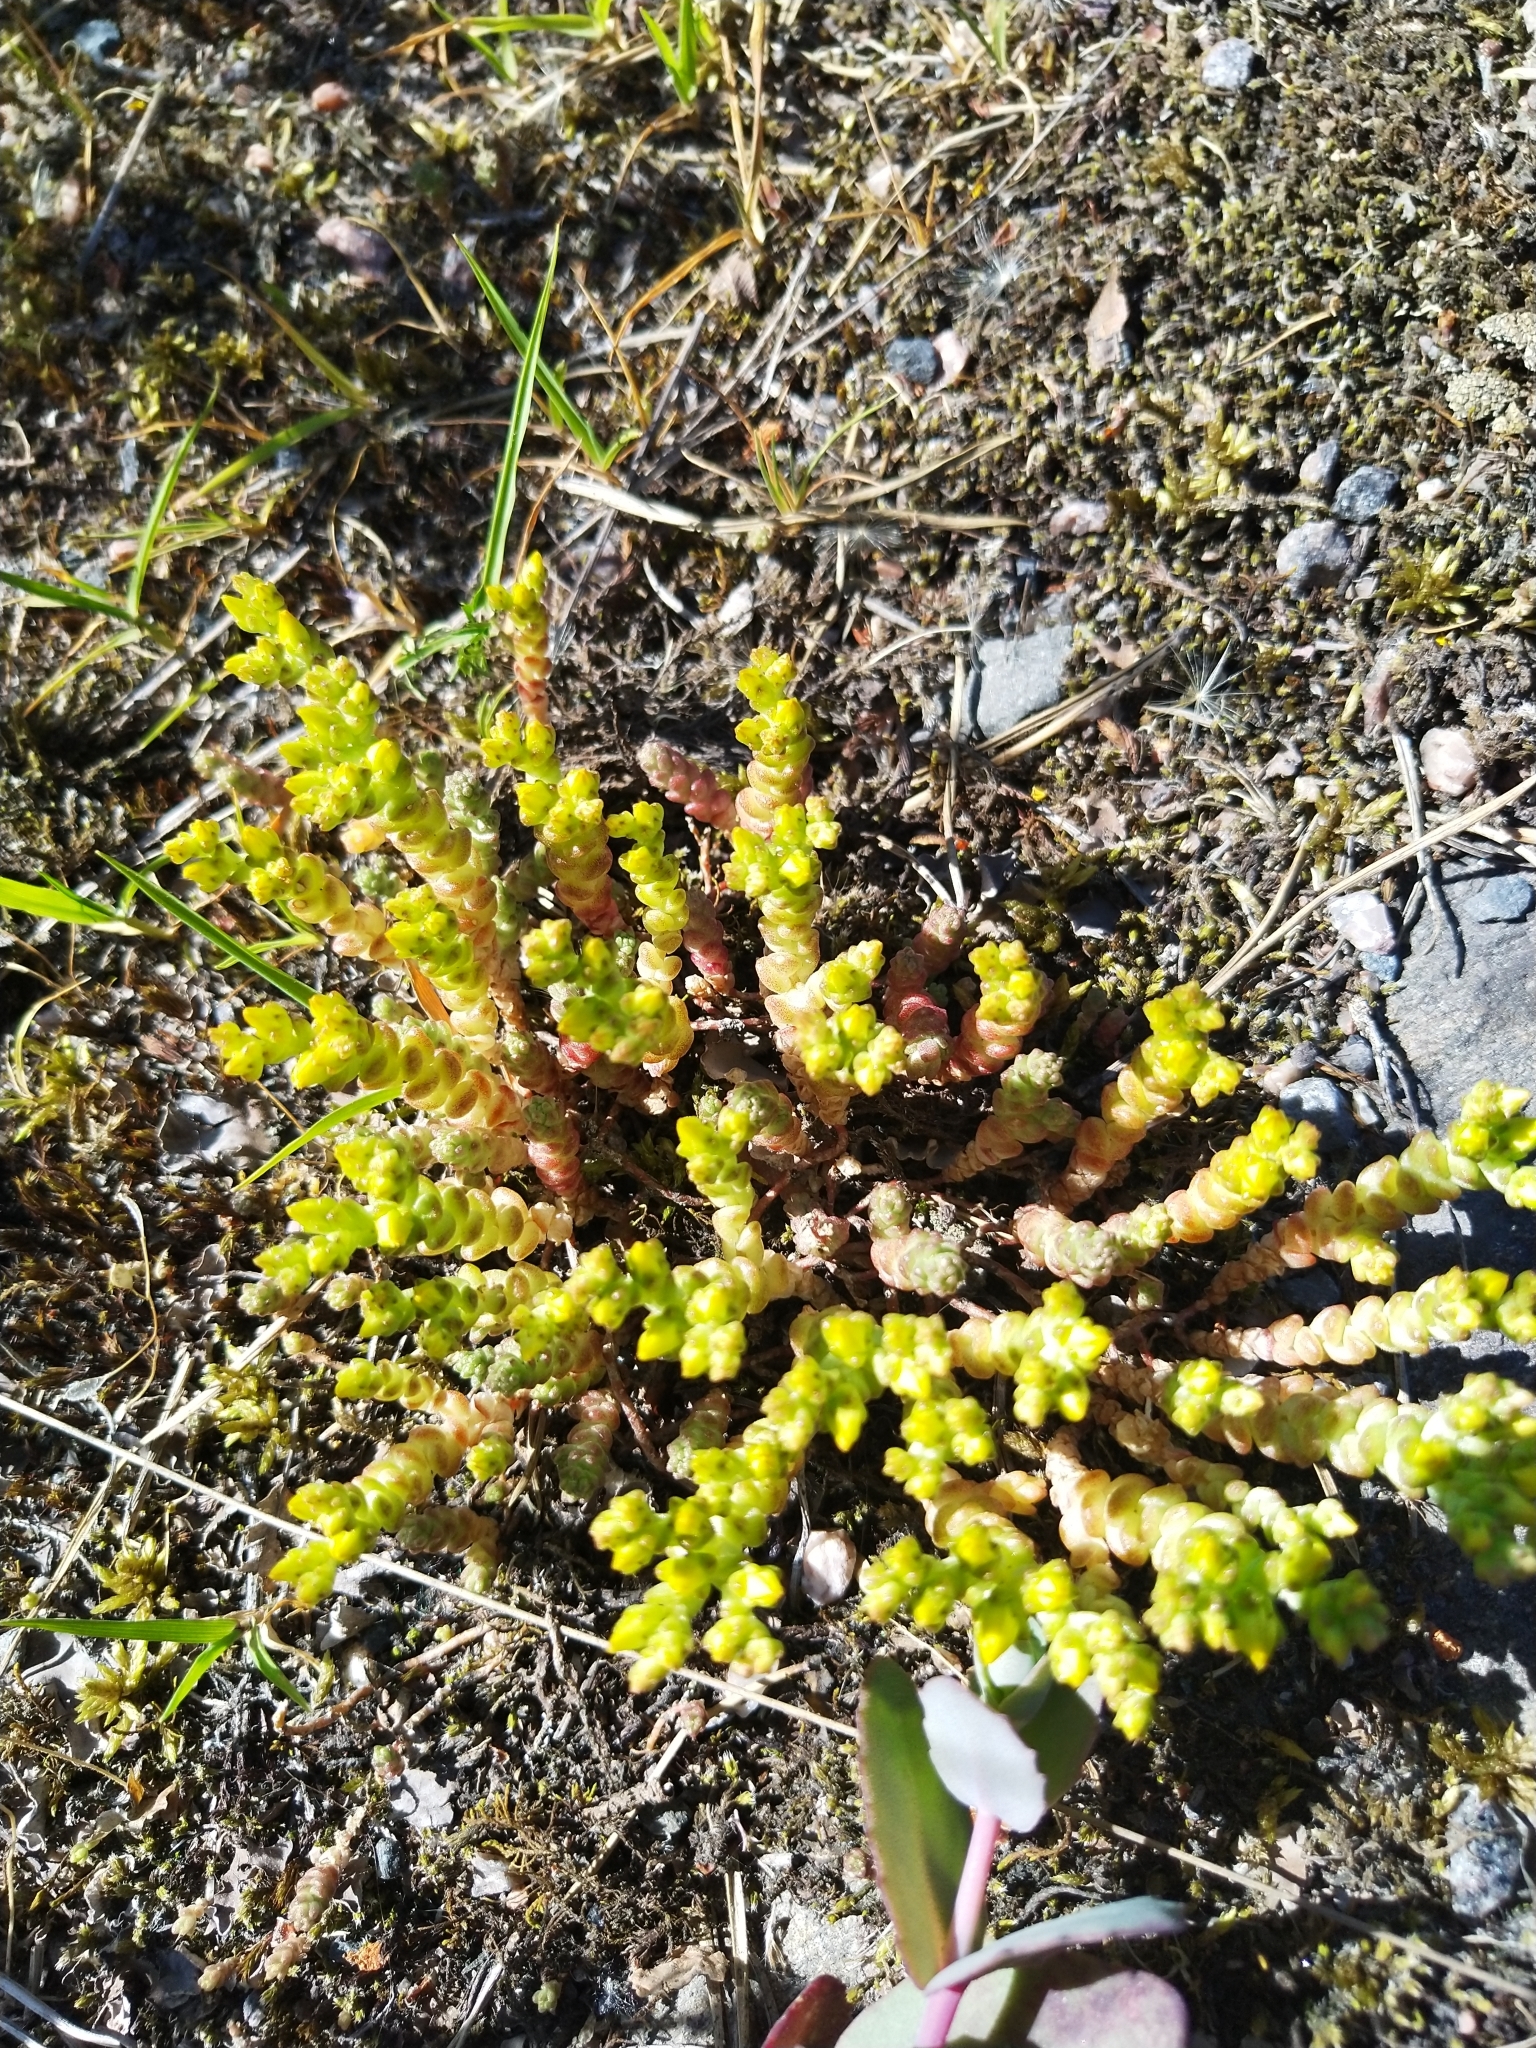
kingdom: Plantae
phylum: Tracheophyta
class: Magnoliopsida
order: Saxifragales
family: Crassulaceae
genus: Sedum
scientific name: Sedum acre
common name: Biting stonecrop
